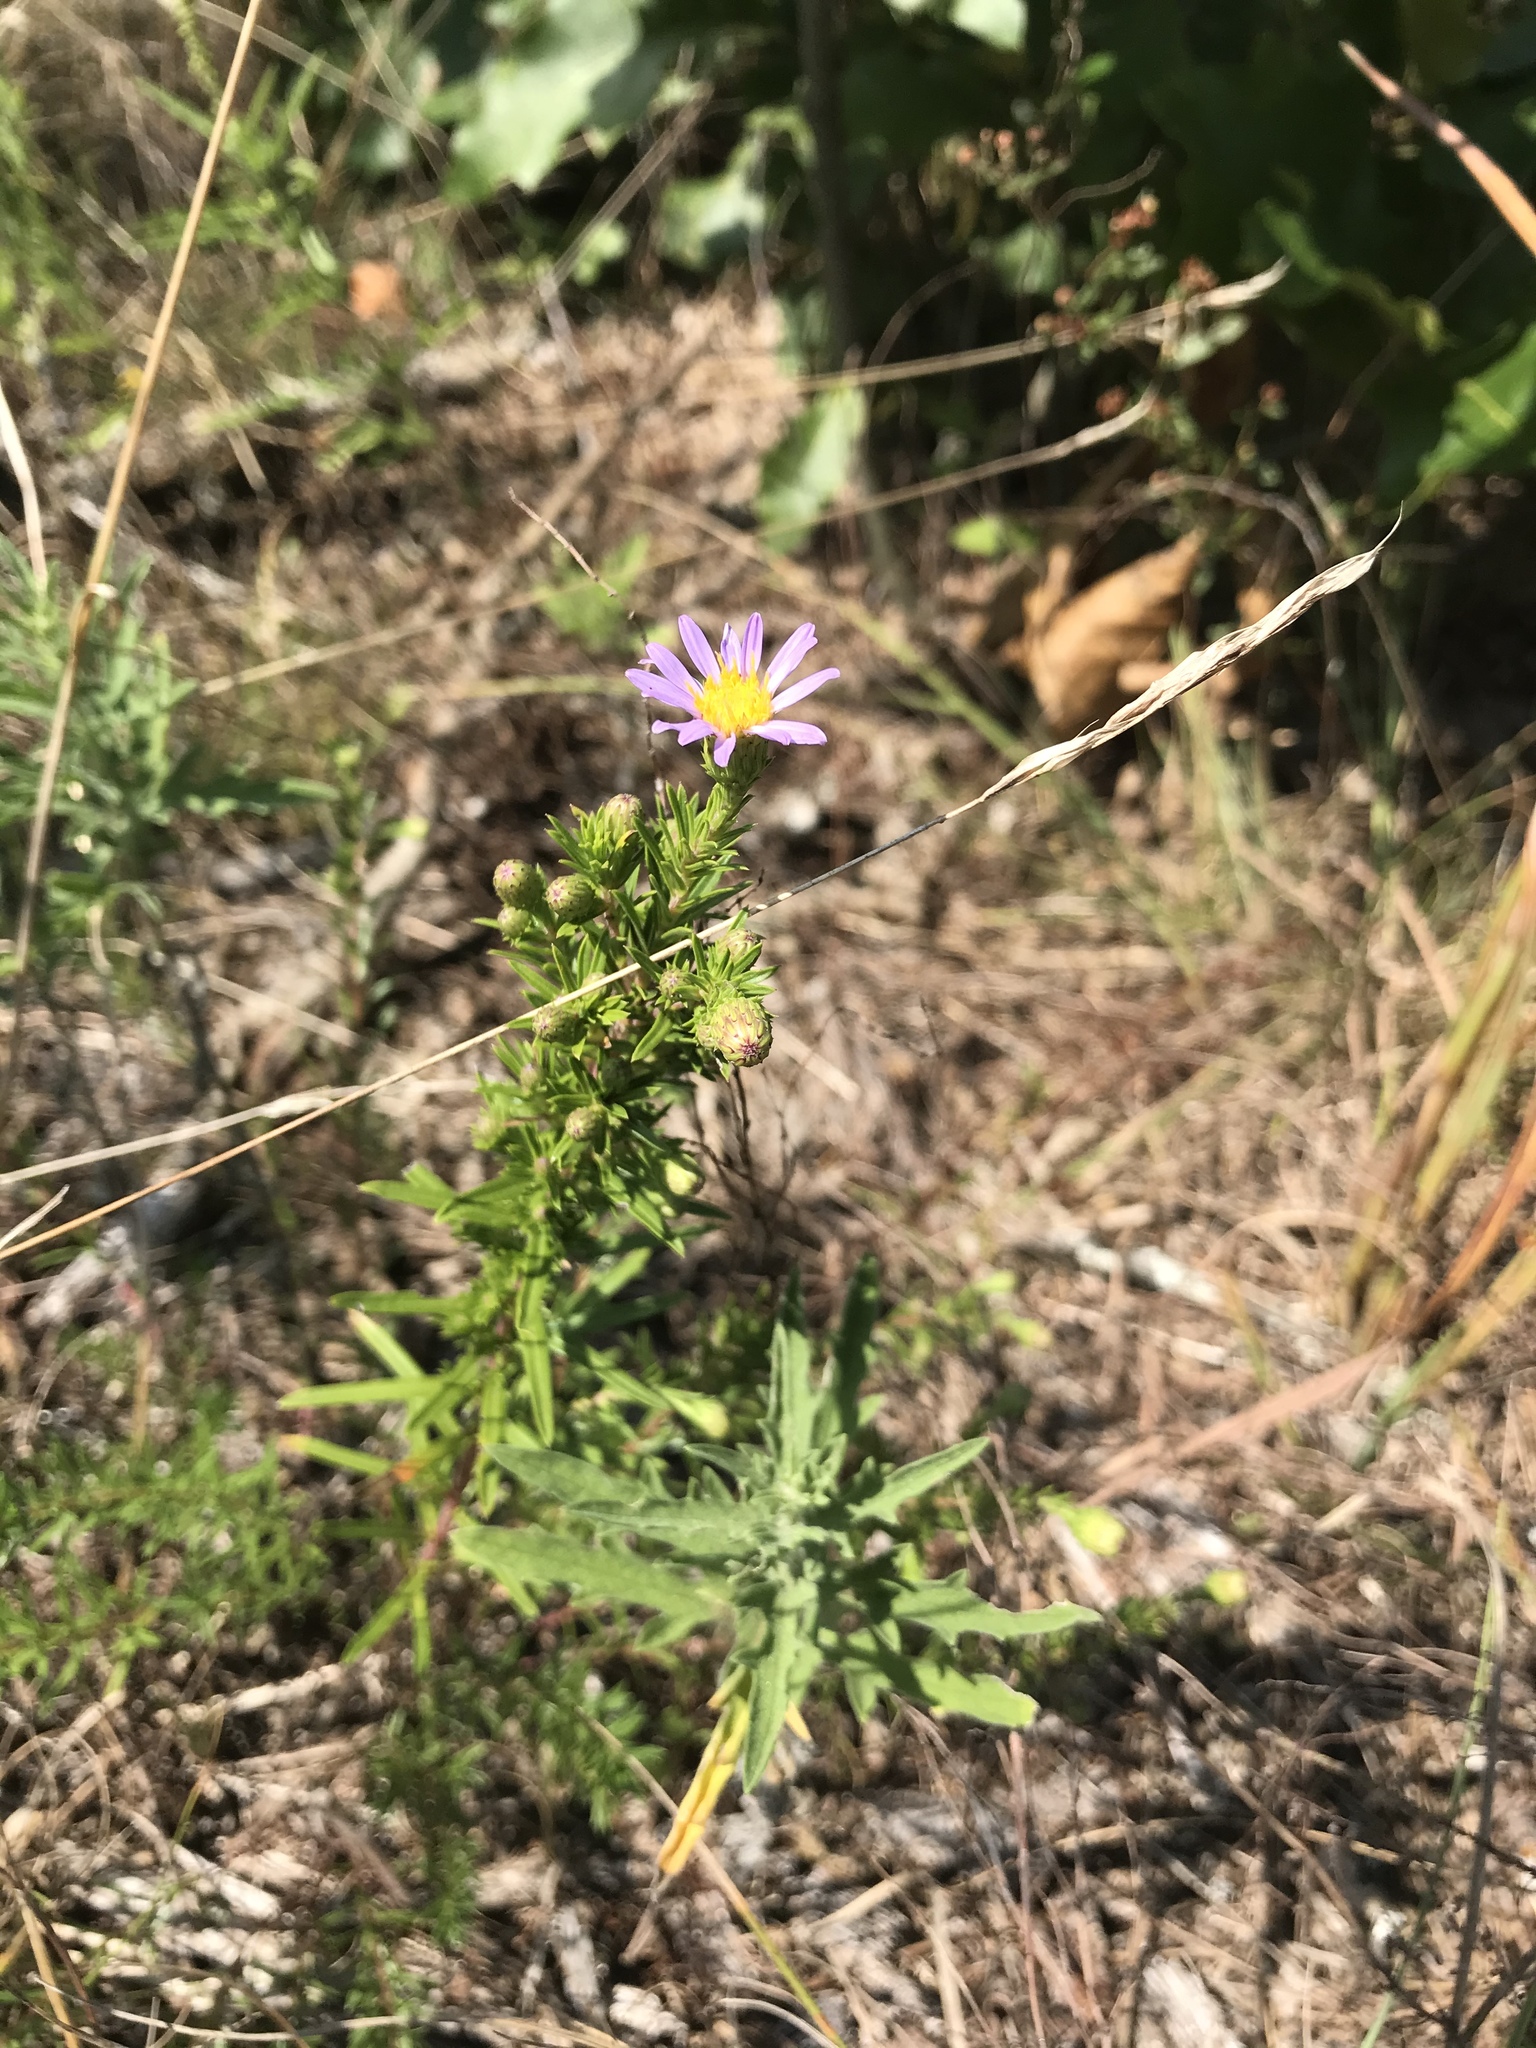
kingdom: Plantae
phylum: Tracheophyta
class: Magnoliopsida
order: Asterales
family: Asteraceae
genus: Ionactis
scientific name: Ionactis linariifolia
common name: Flax-leaf aster
